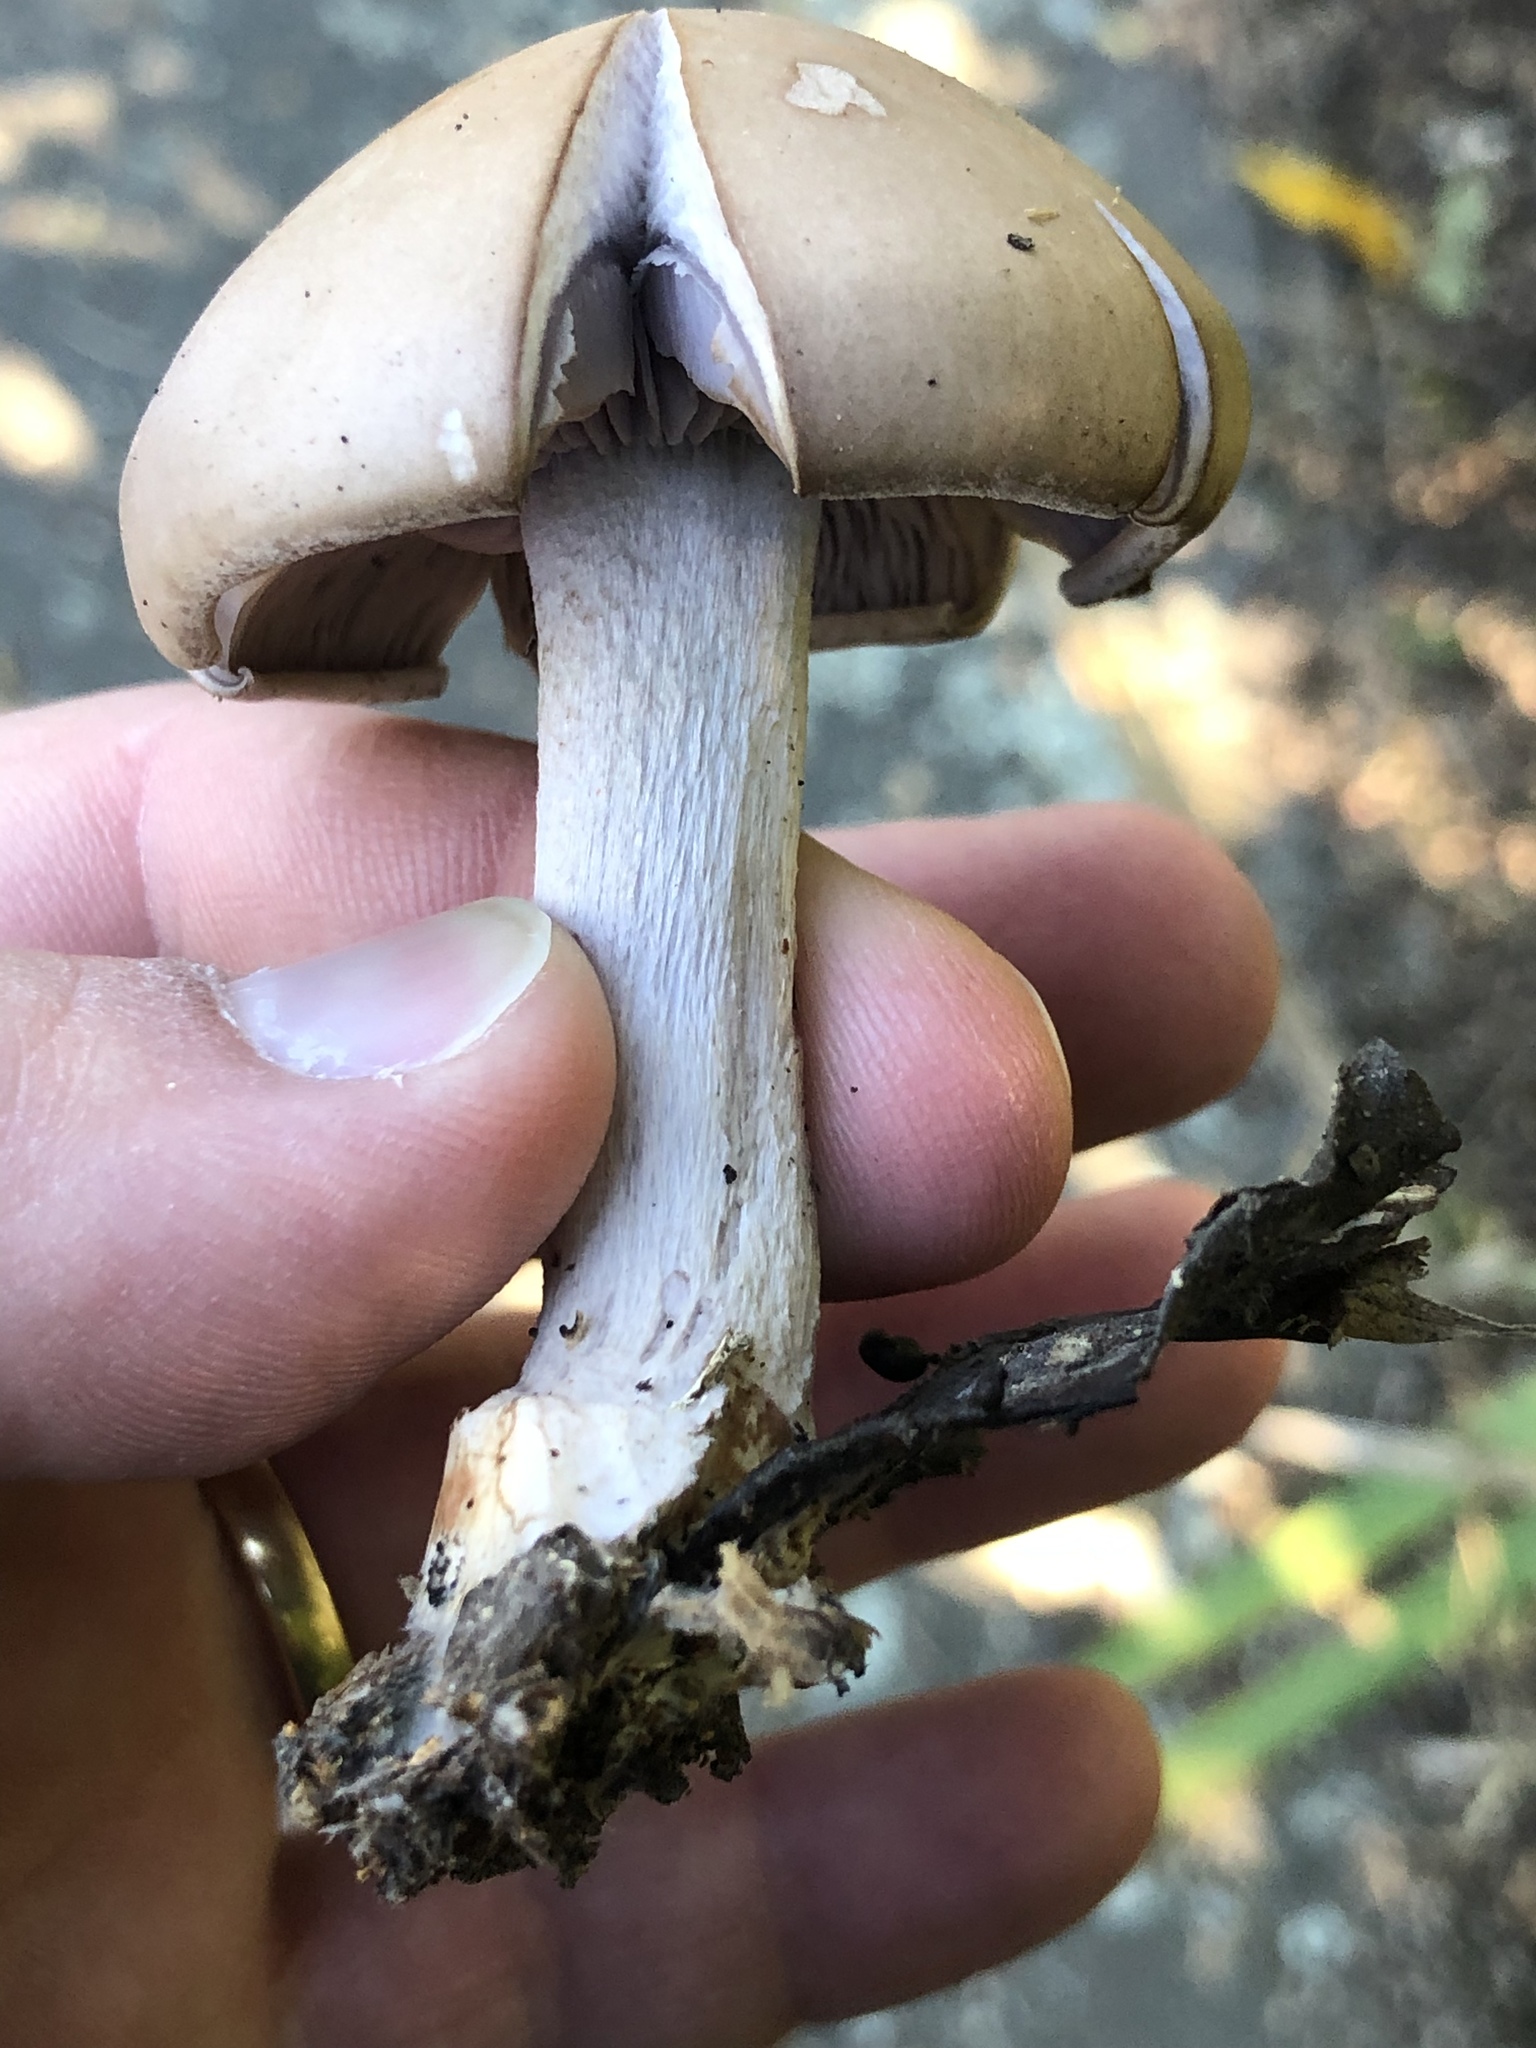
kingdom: Fungi
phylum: Basidiomycota
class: Agaricomycetes
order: Agaricales
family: Strophariaceae
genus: Stropharia
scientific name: Stropharia rugosoannulata
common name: Wine roundhead
